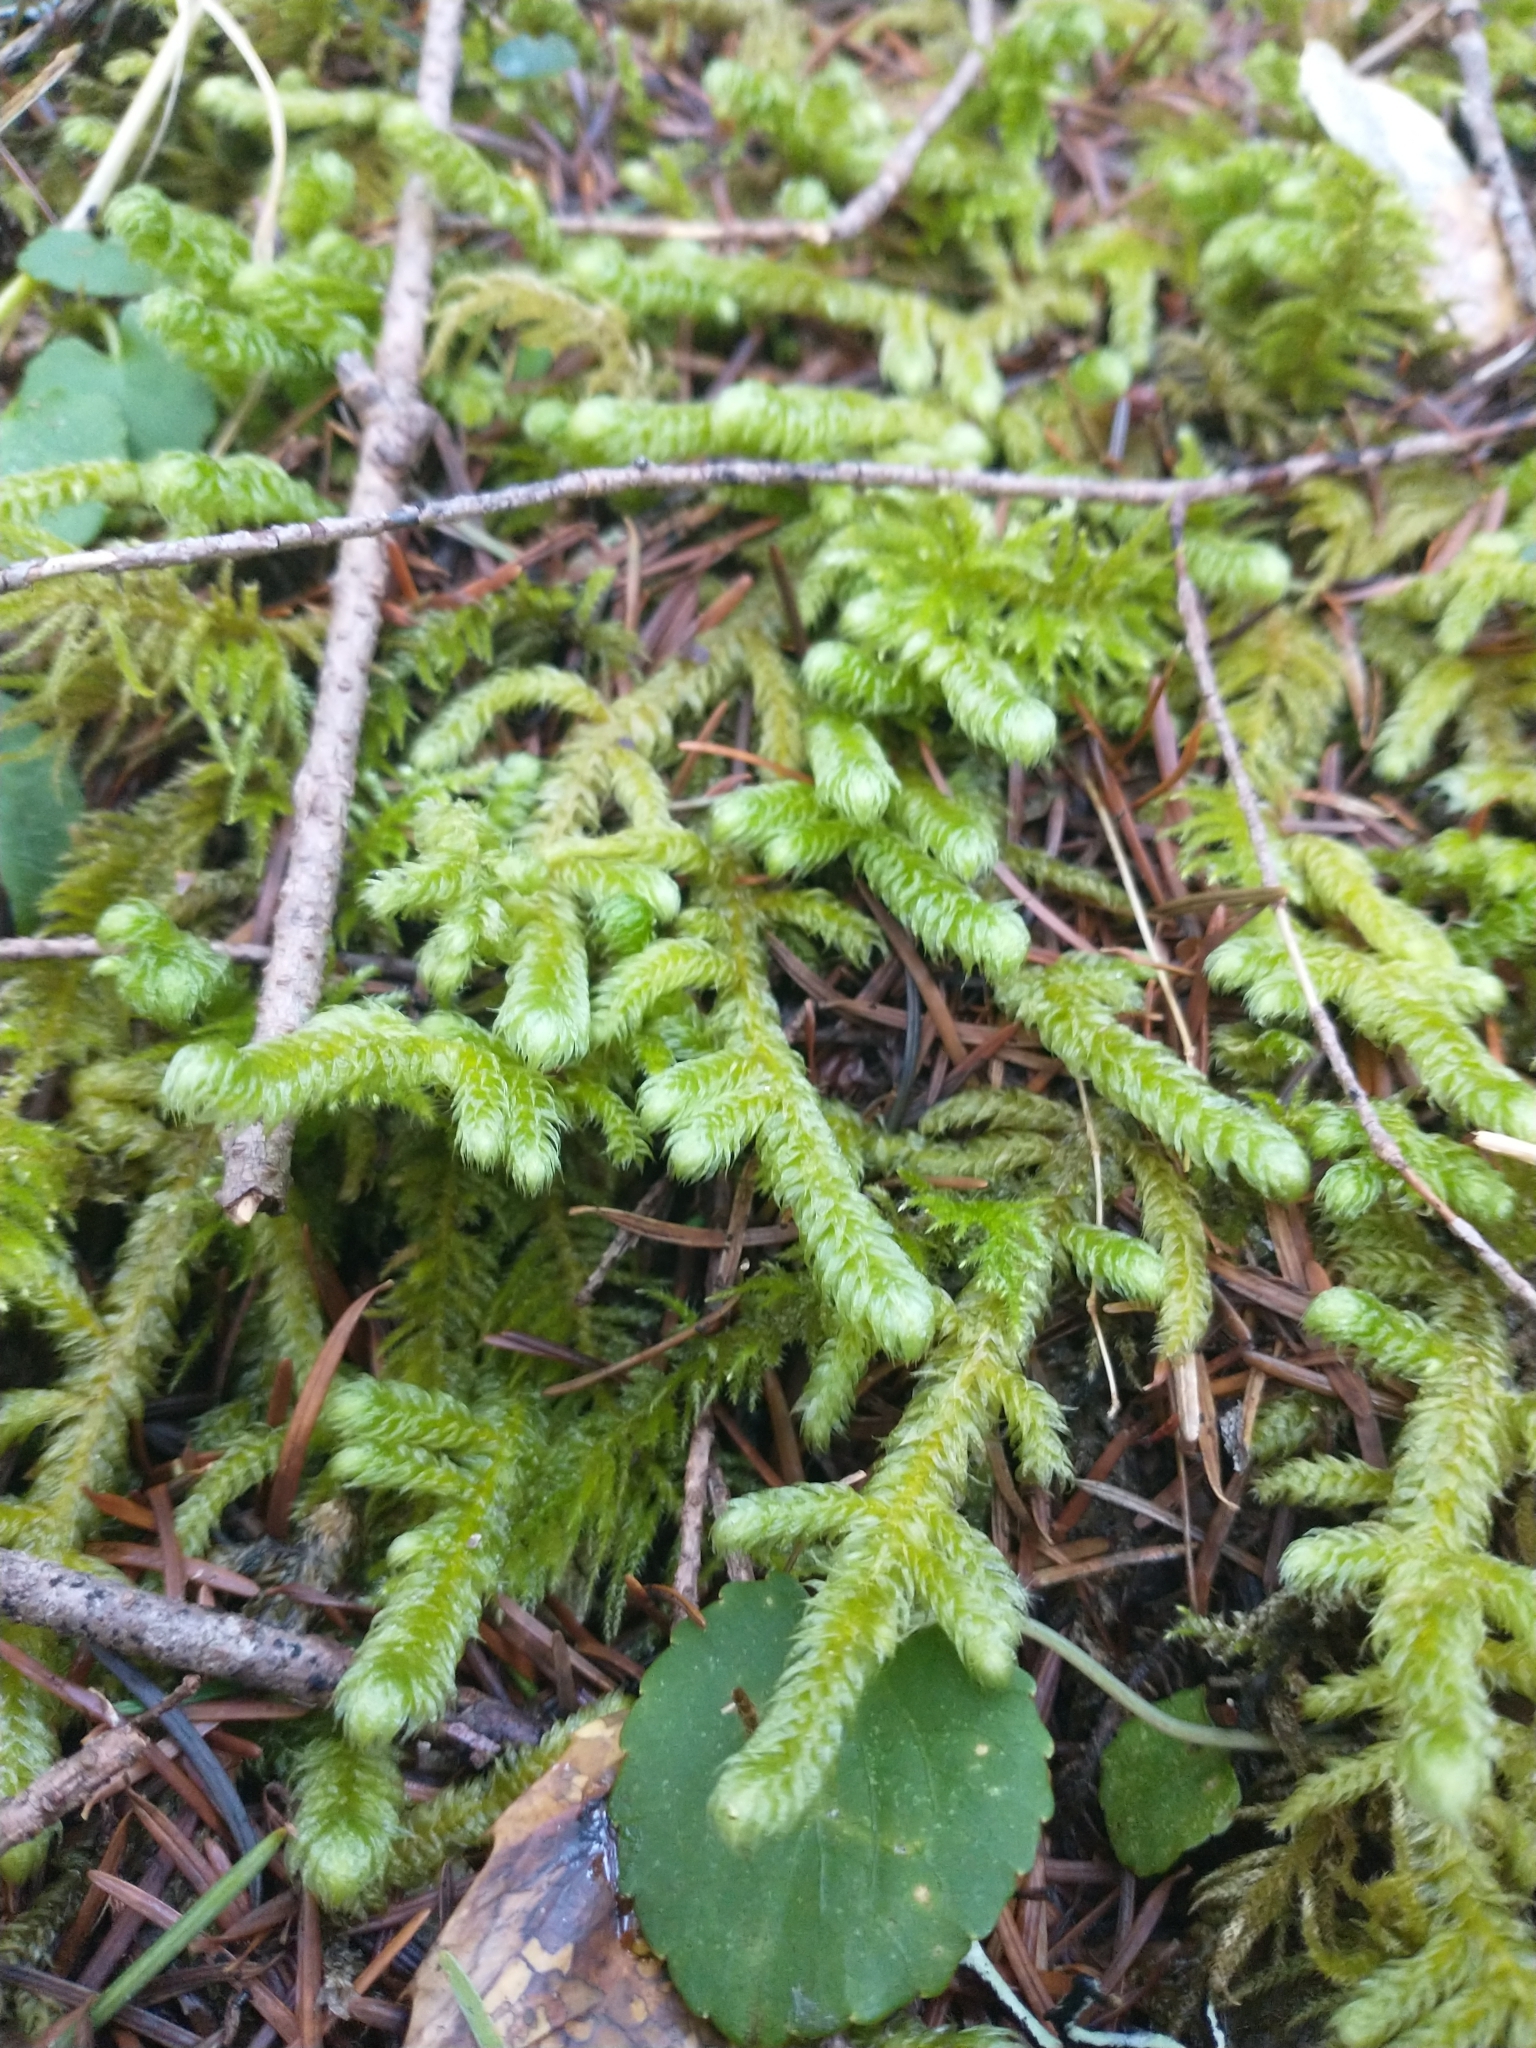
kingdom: Plantae
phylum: Bryophyta
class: Bryopsida
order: Hypnales
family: Hylocomiaceae
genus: Rhytidiopsis
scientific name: Rhytidiopsis robusta
